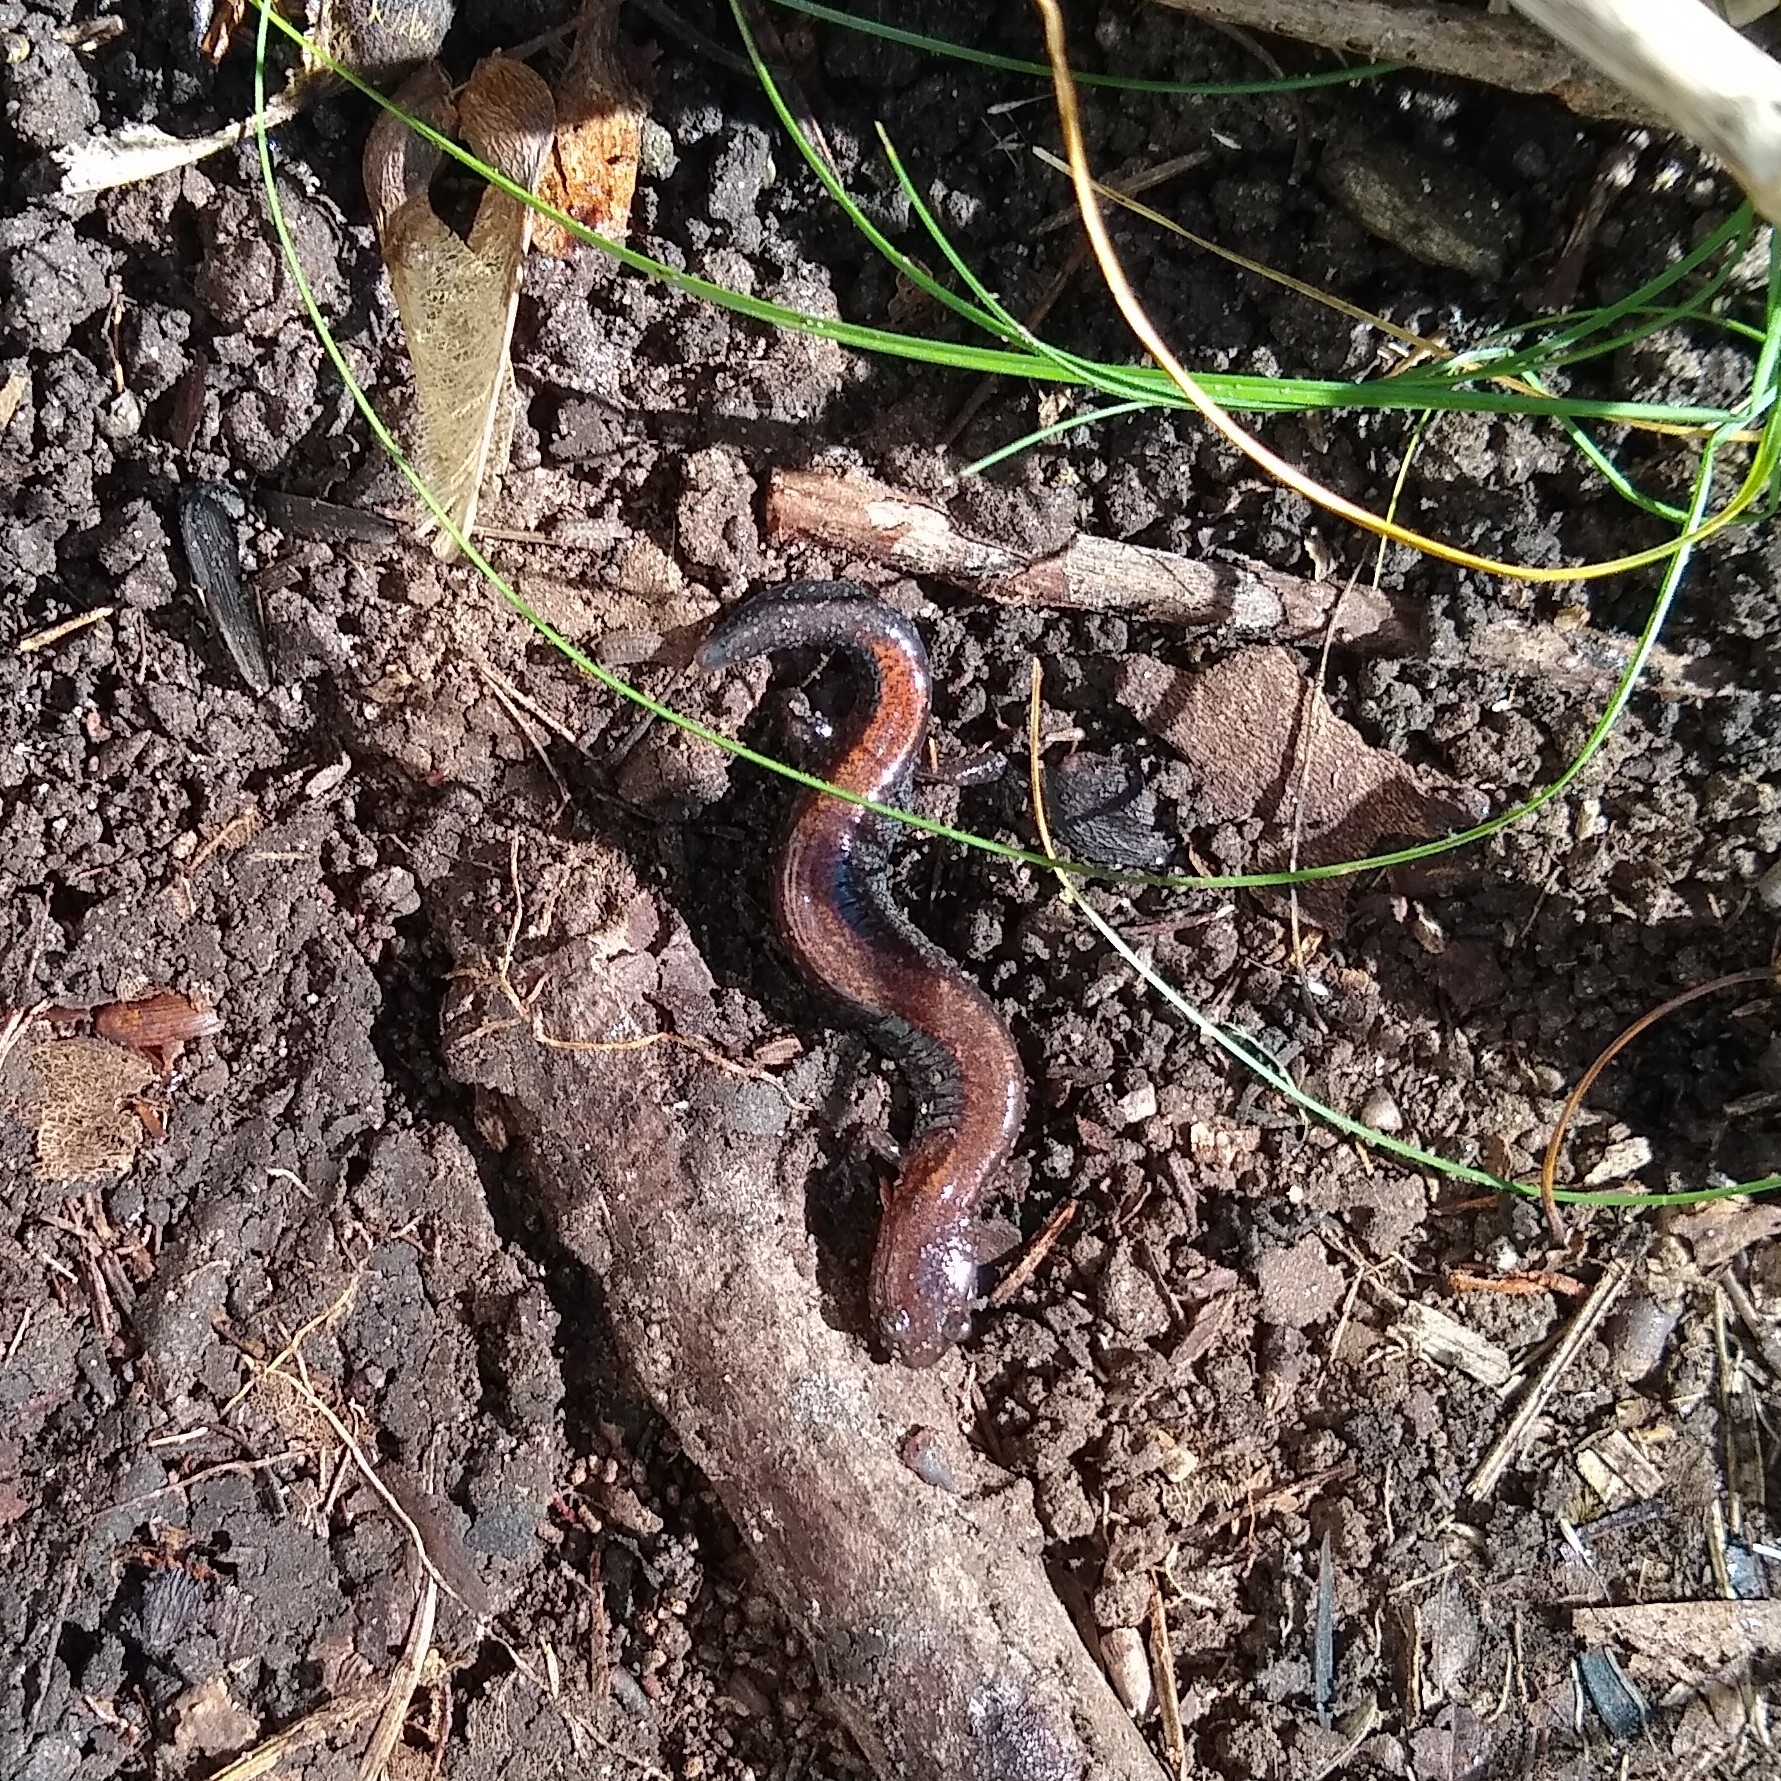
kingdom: Animalia
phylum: Chordata
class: Amphibia
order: Caudata
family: Plethodontidae
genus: Plethodon
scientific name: Plethodon cinereus
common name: Redback salamander
